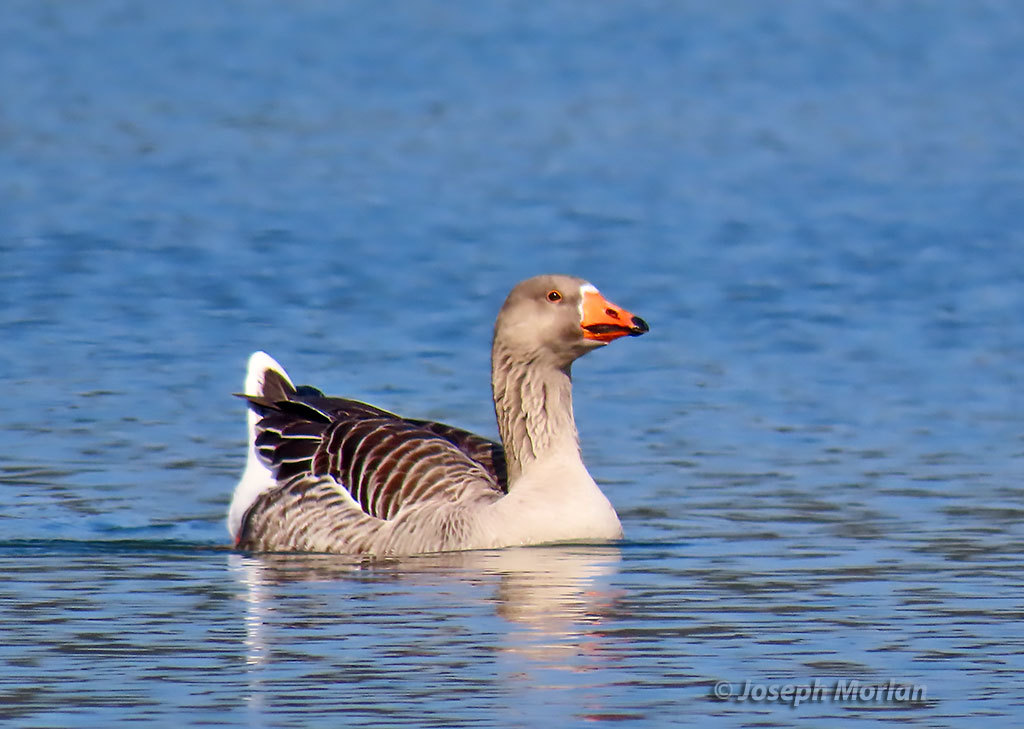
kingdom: Animalia
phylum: Chordata
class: Aves
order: Anseriformes
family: Anatidae
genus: Anser
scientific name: Anser
